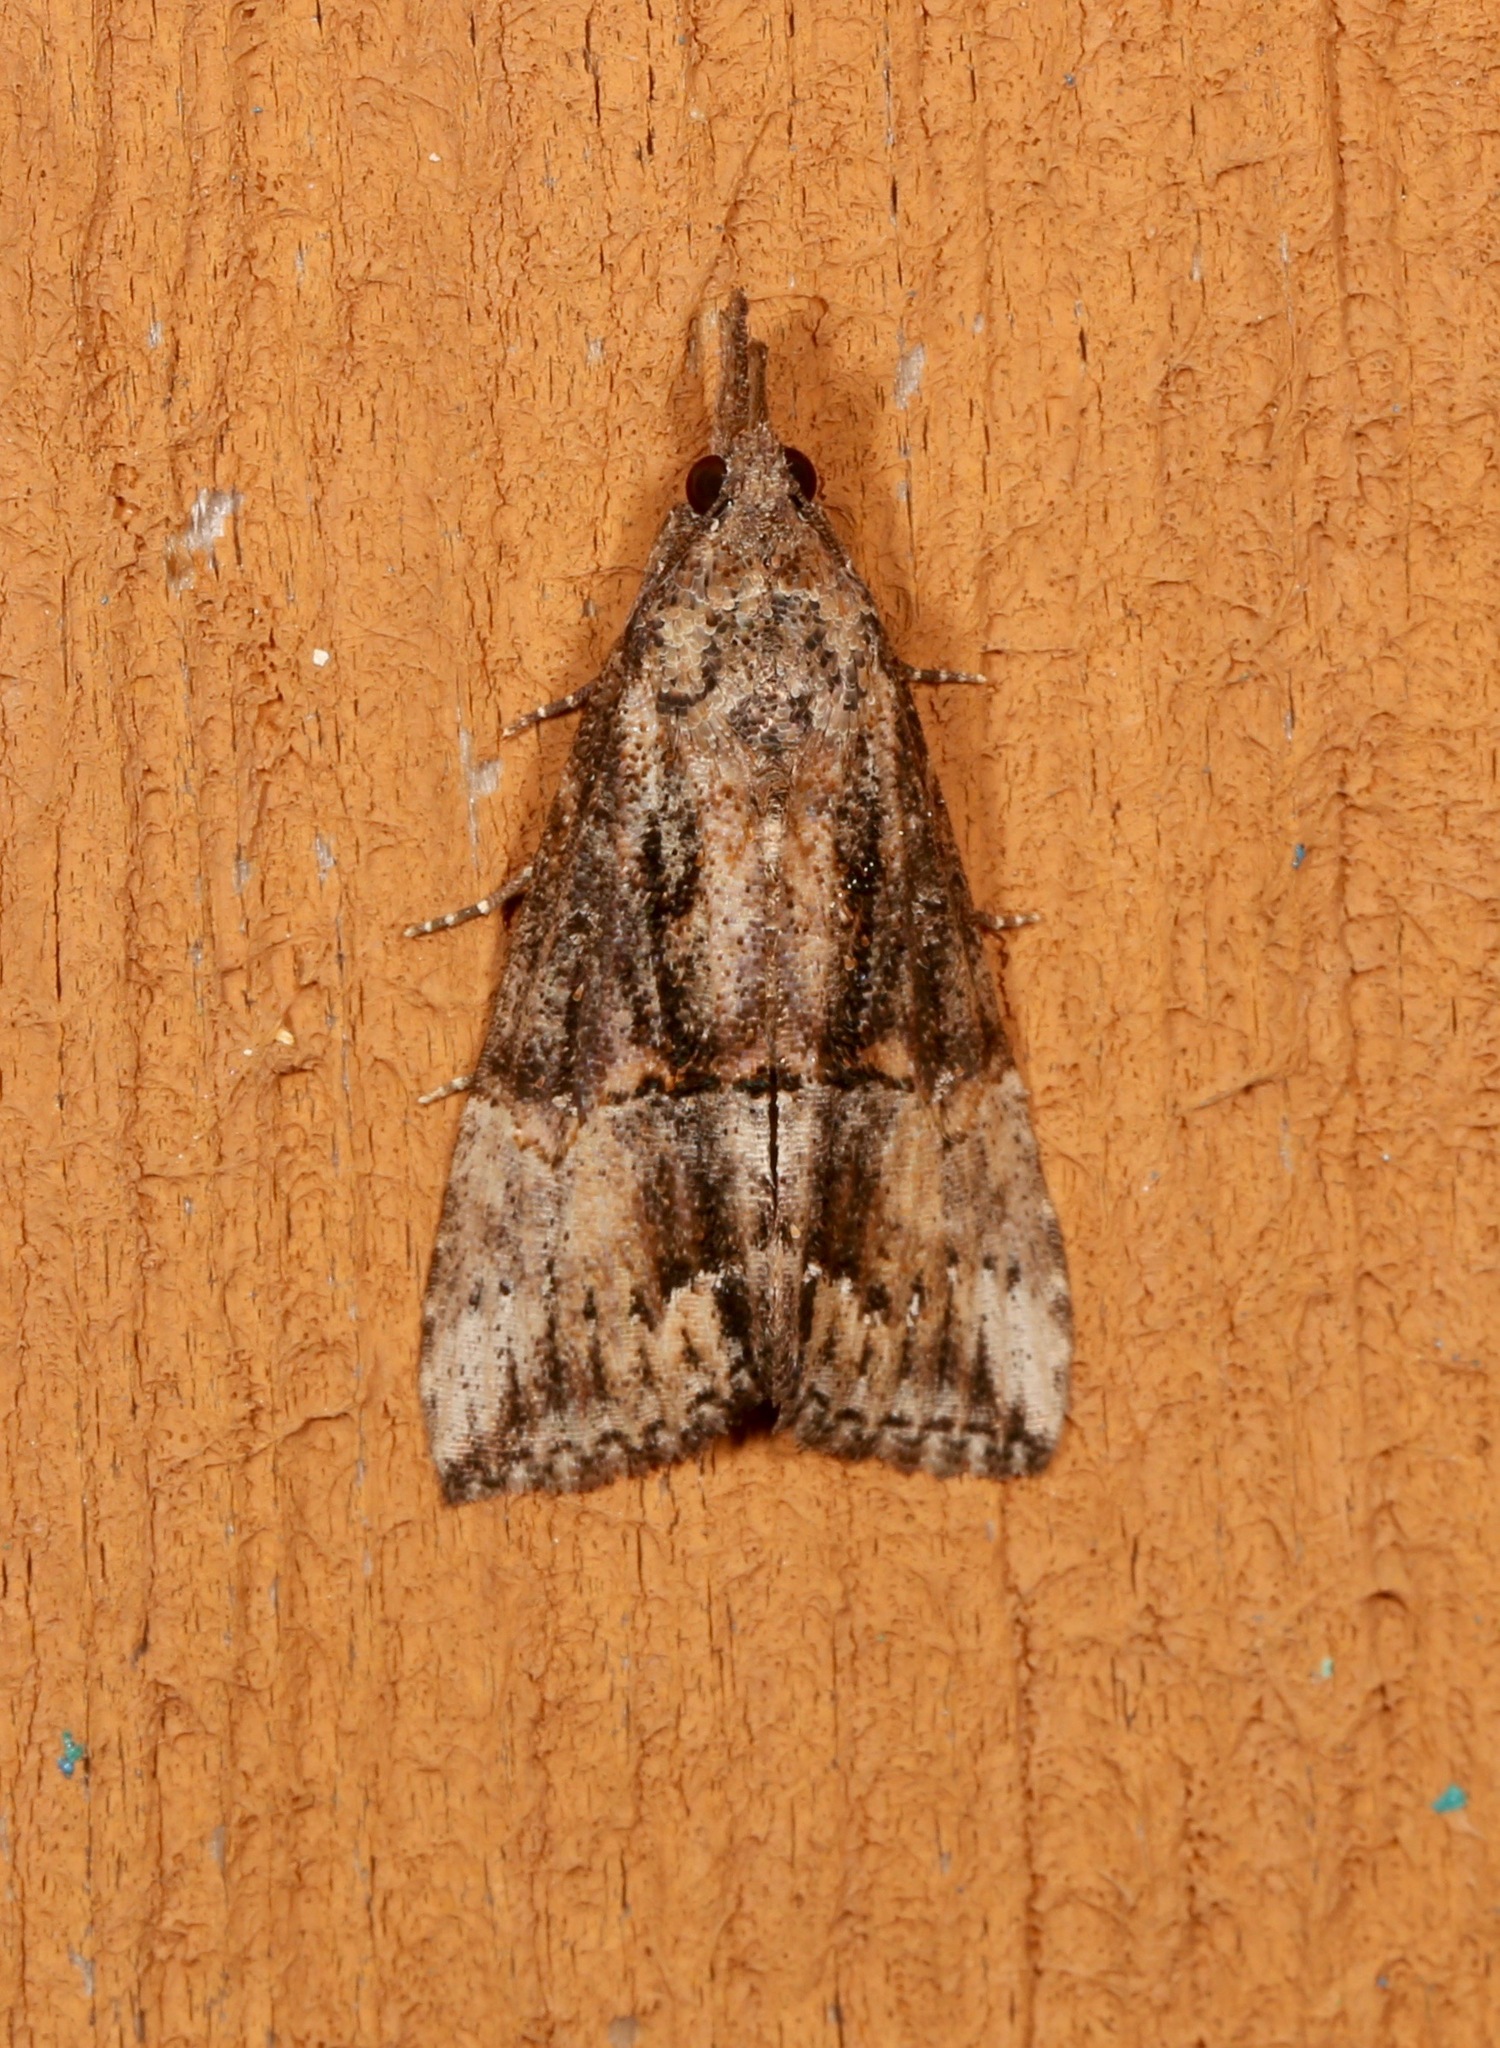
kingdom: Animalia
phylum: Arthropoda
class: Insecta
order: Lepidoptera
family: Erebidae
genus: Hypena
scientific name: Hypena scabra
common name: Green cloverworm
